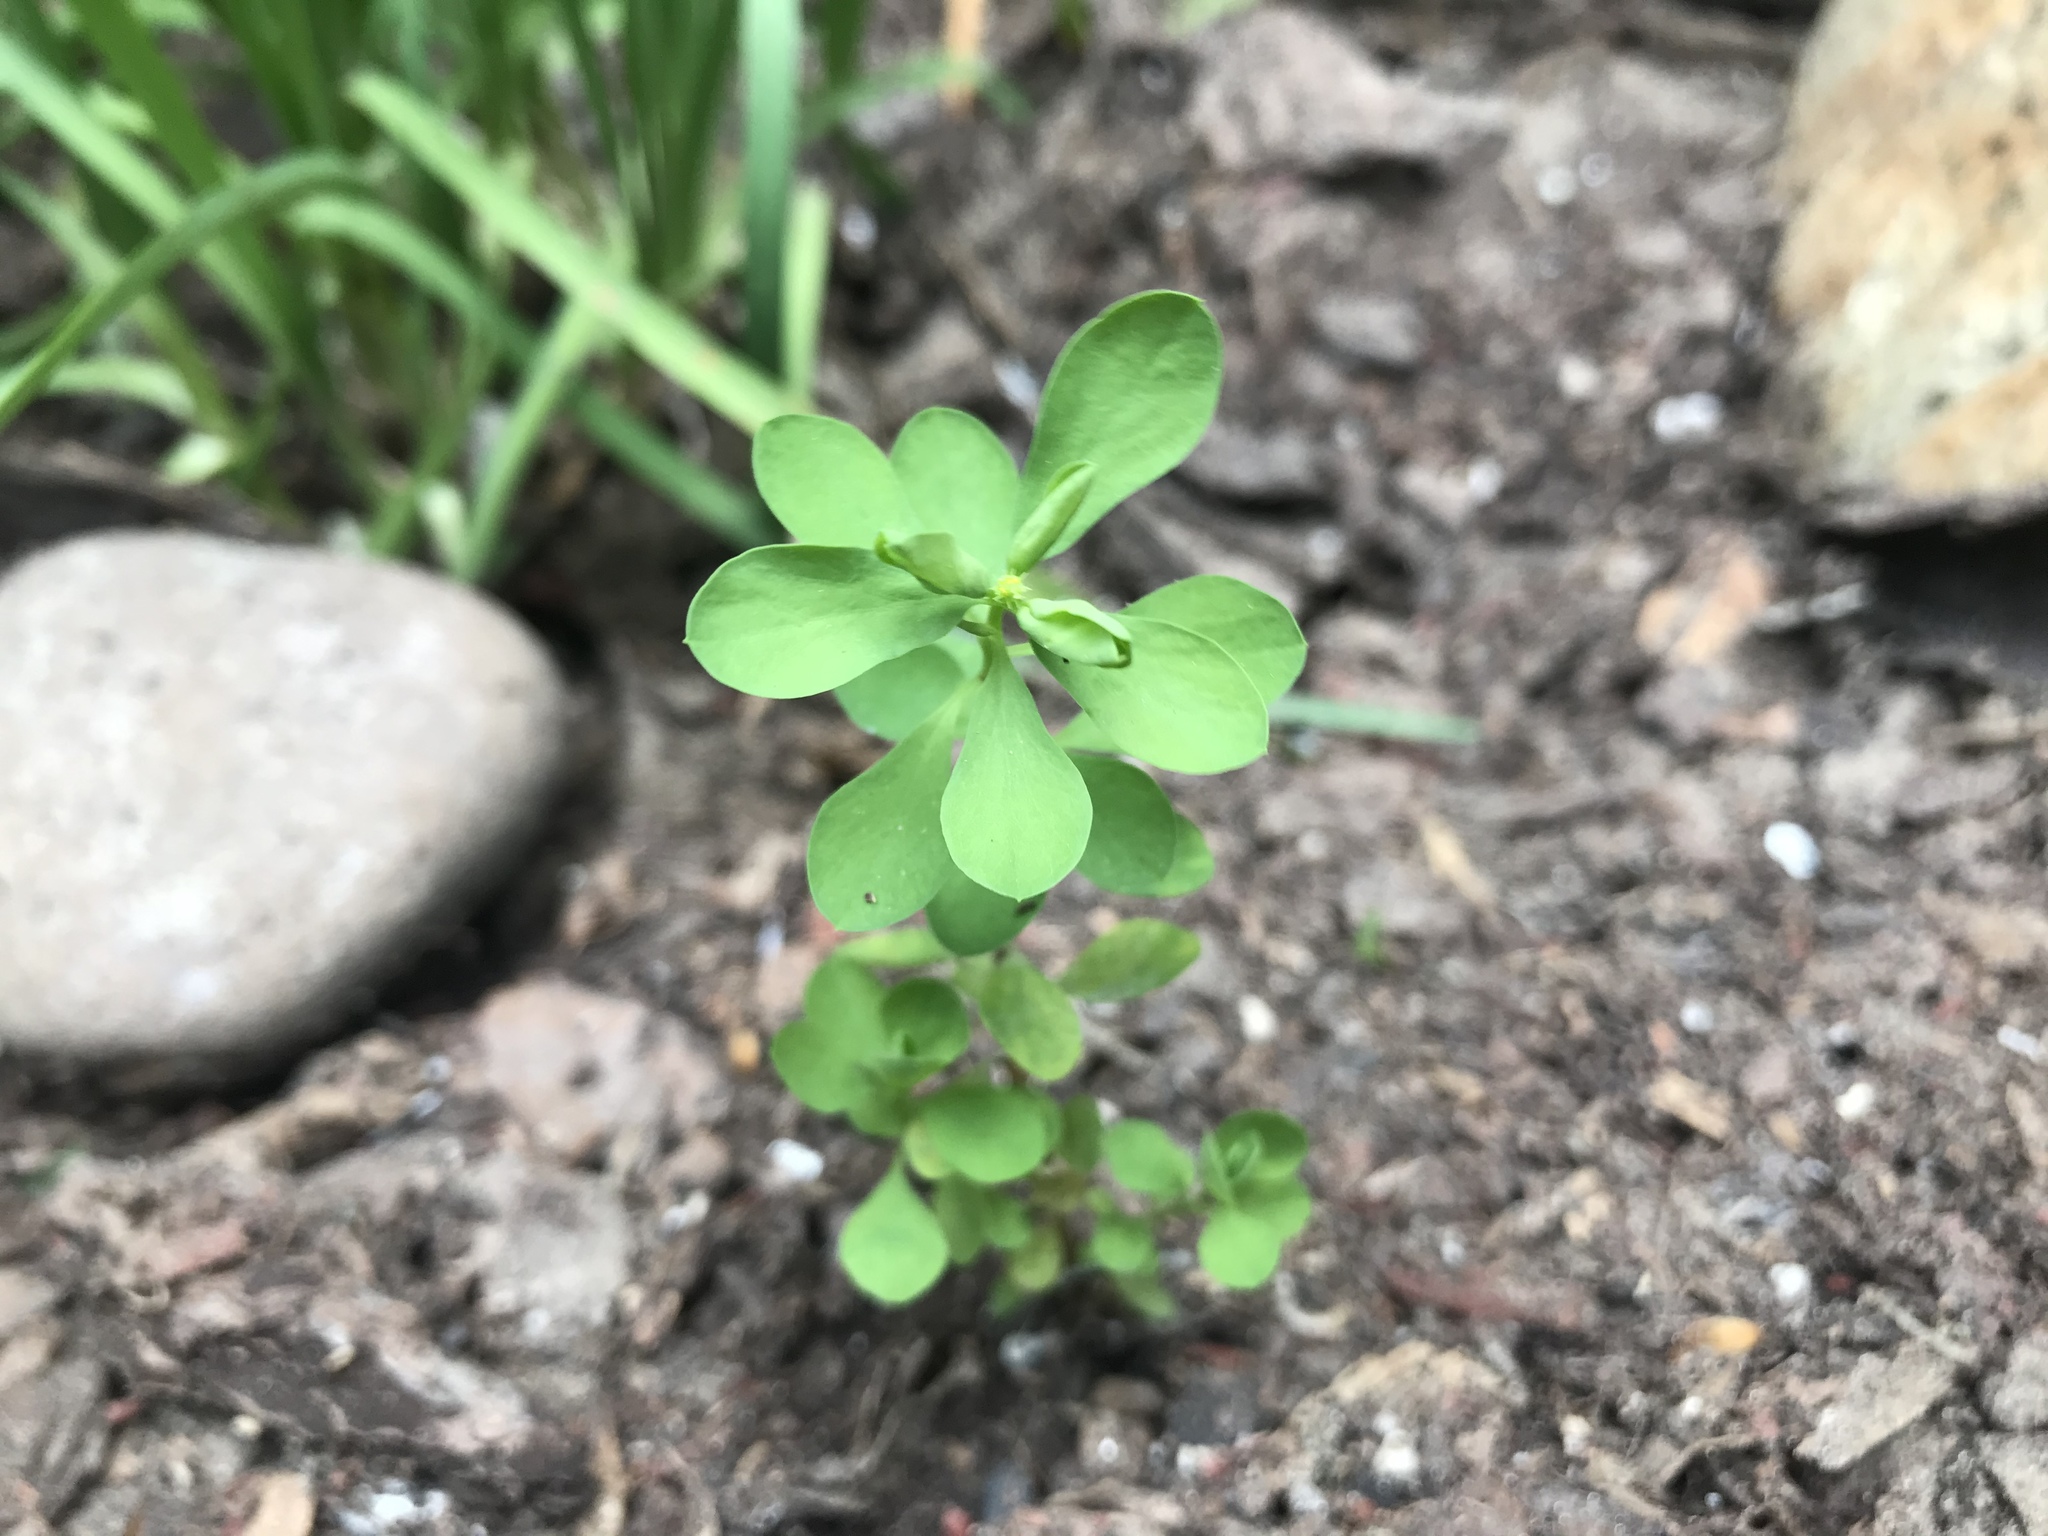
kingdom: Plantae
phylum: Tracheophyta
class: Magnoliopsida
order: Malpighiales
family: Euphorbiaceae
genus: Euphorbia
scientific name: Euphorbia peplus
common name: Petty spurge
